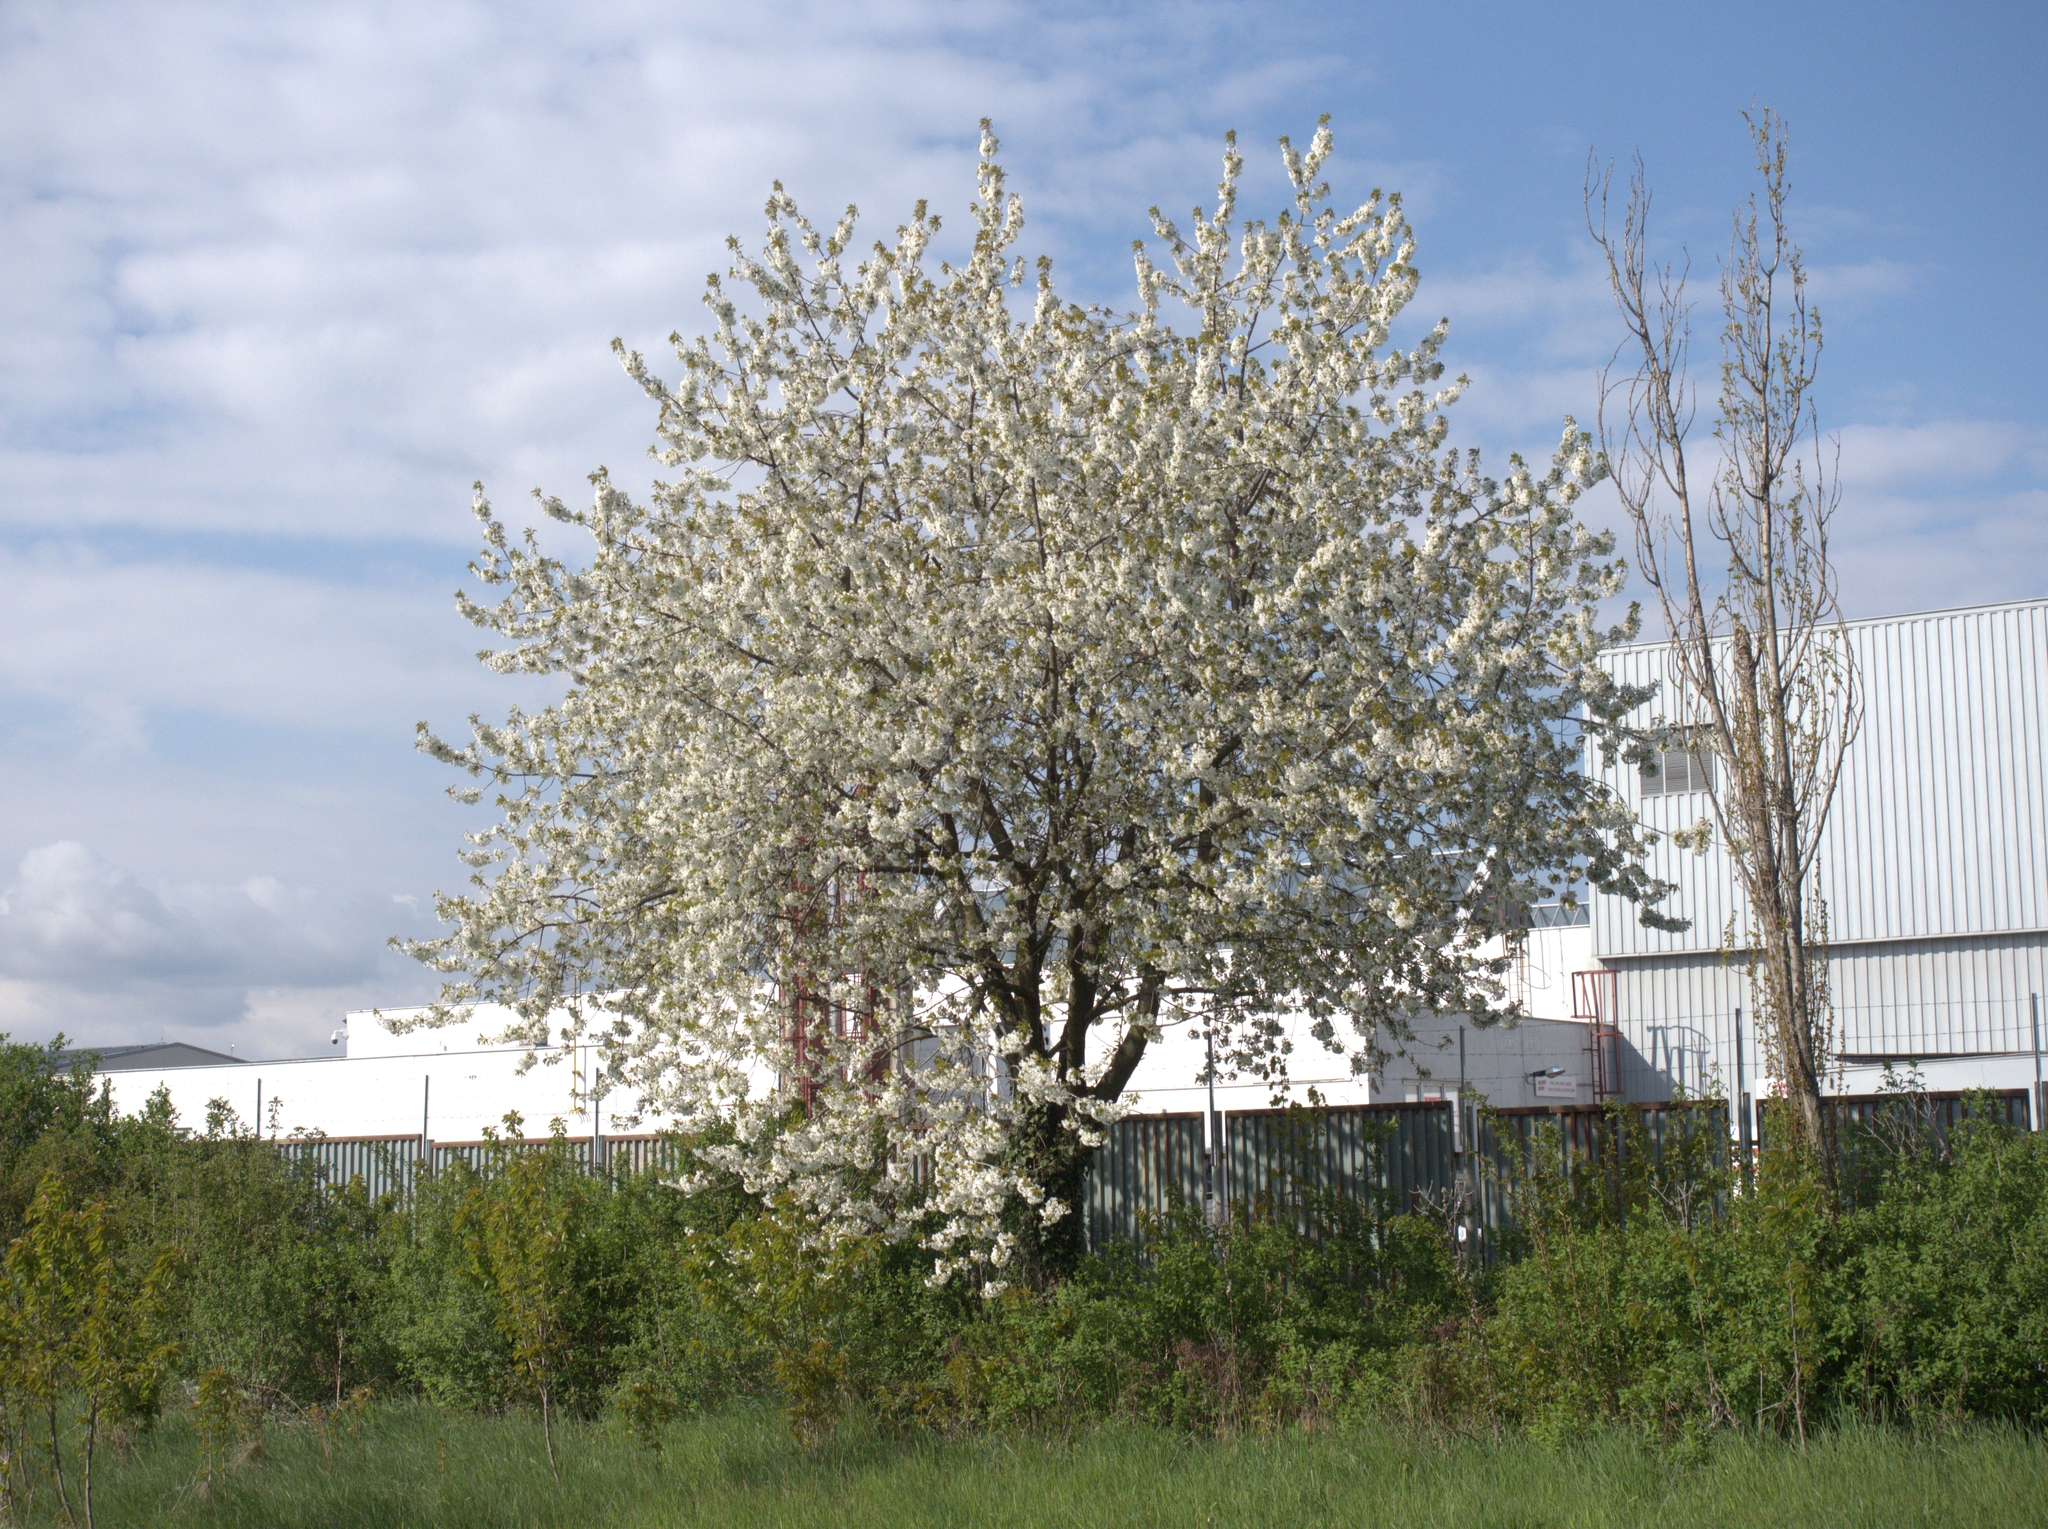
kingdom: Plantae
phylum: Tracheophyta
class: Magnoliopsida
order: Rosales
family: Rosaceae
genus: Prunus
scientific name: Prunus avium
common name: Sweet cherry
